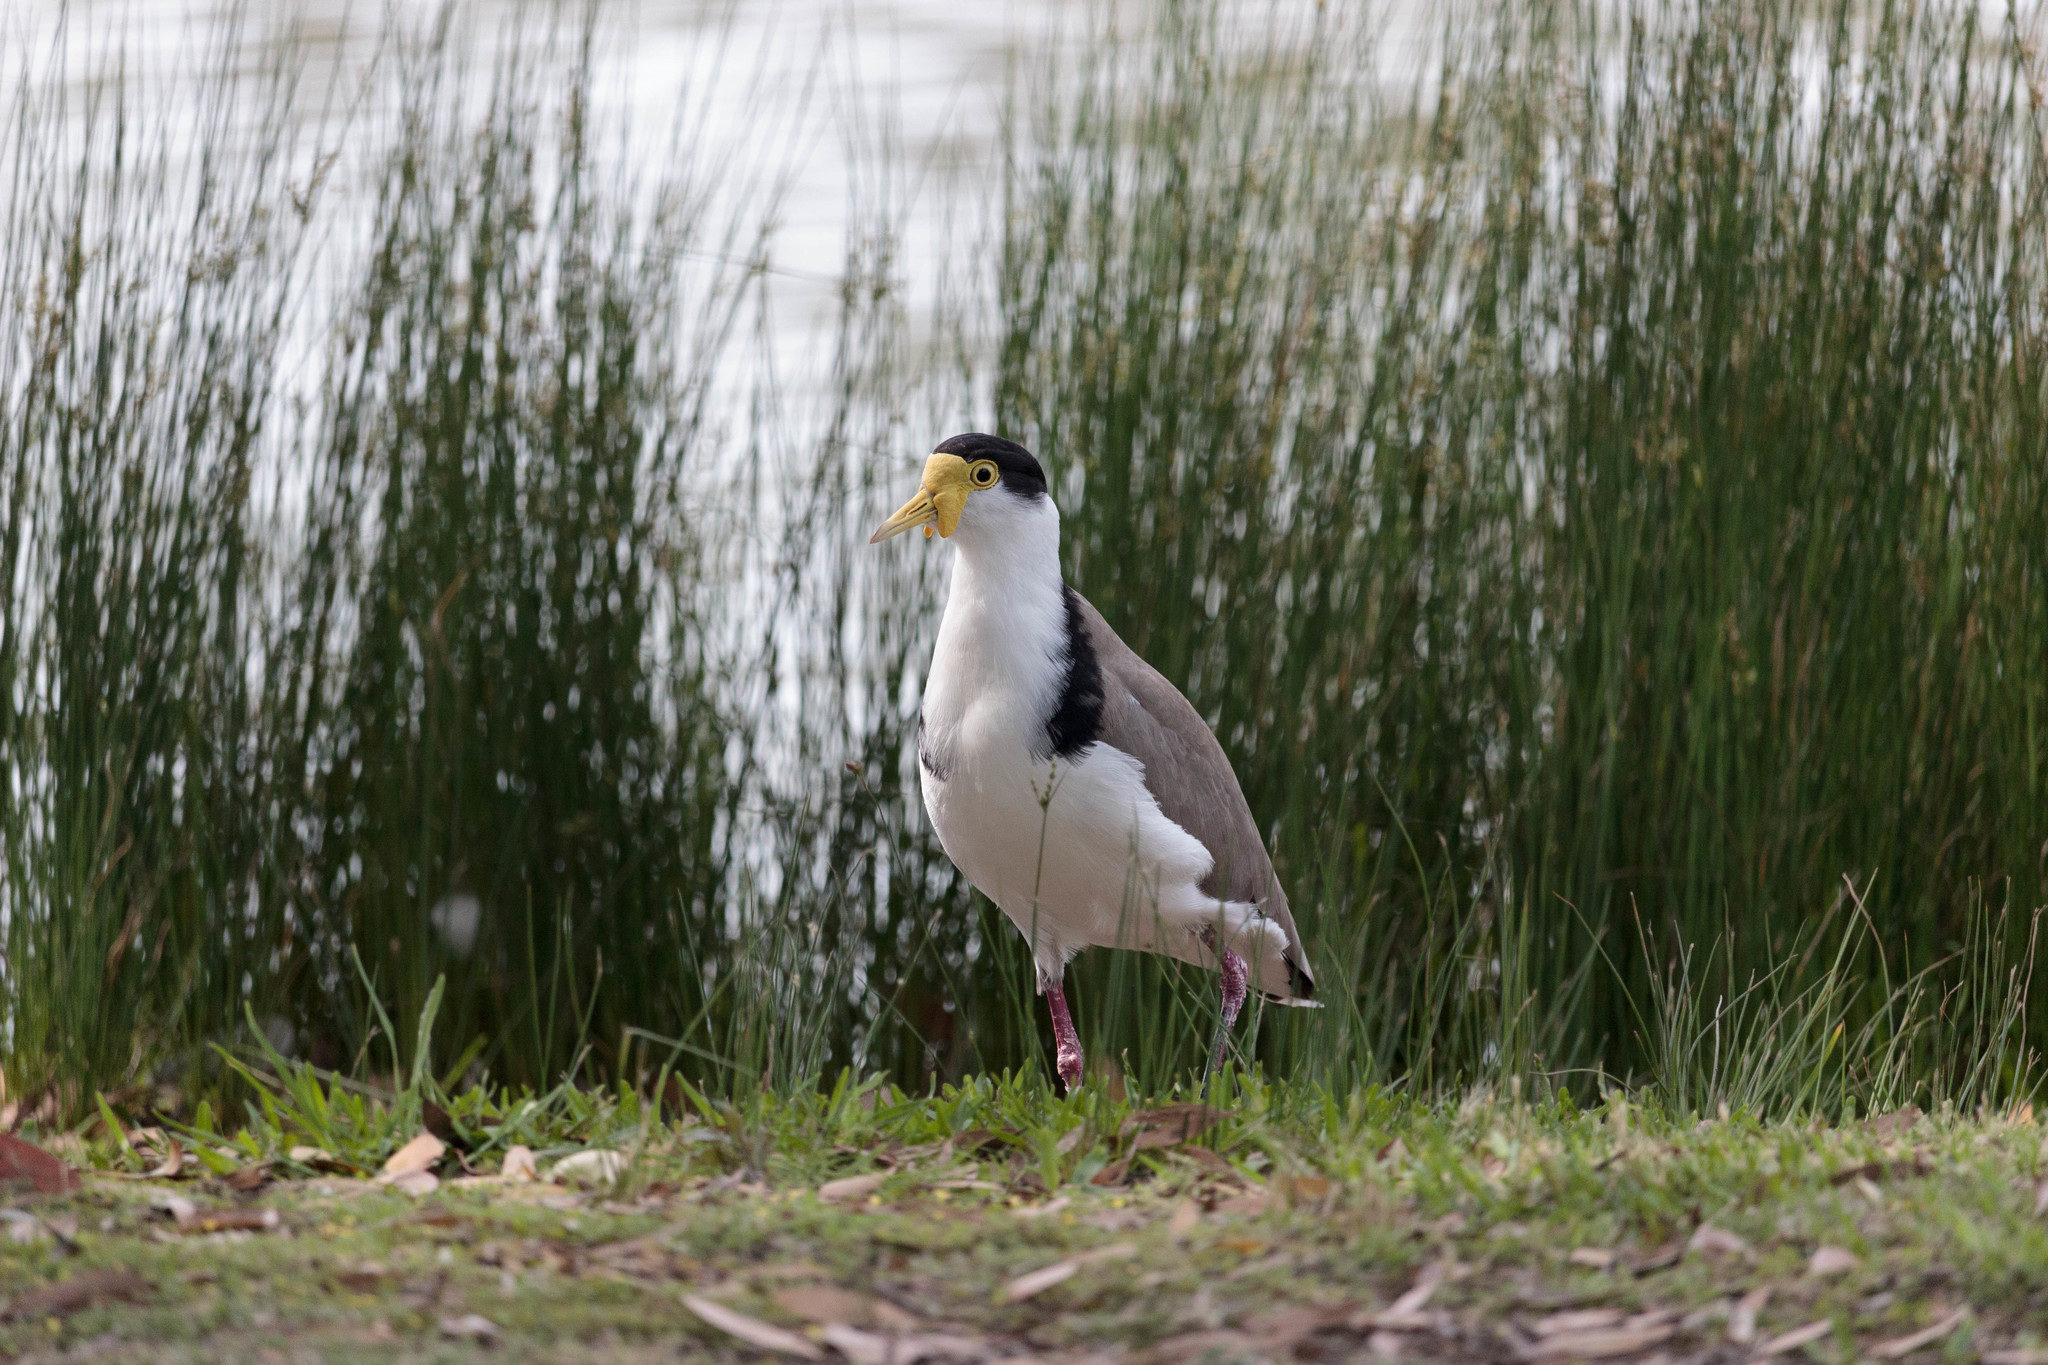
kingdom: Animalia
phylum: Chordata
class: Aves
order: Charadriiformes
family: Charadriidae
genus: Vanellus
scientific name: Vanellus miles
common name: Masked lapwing
